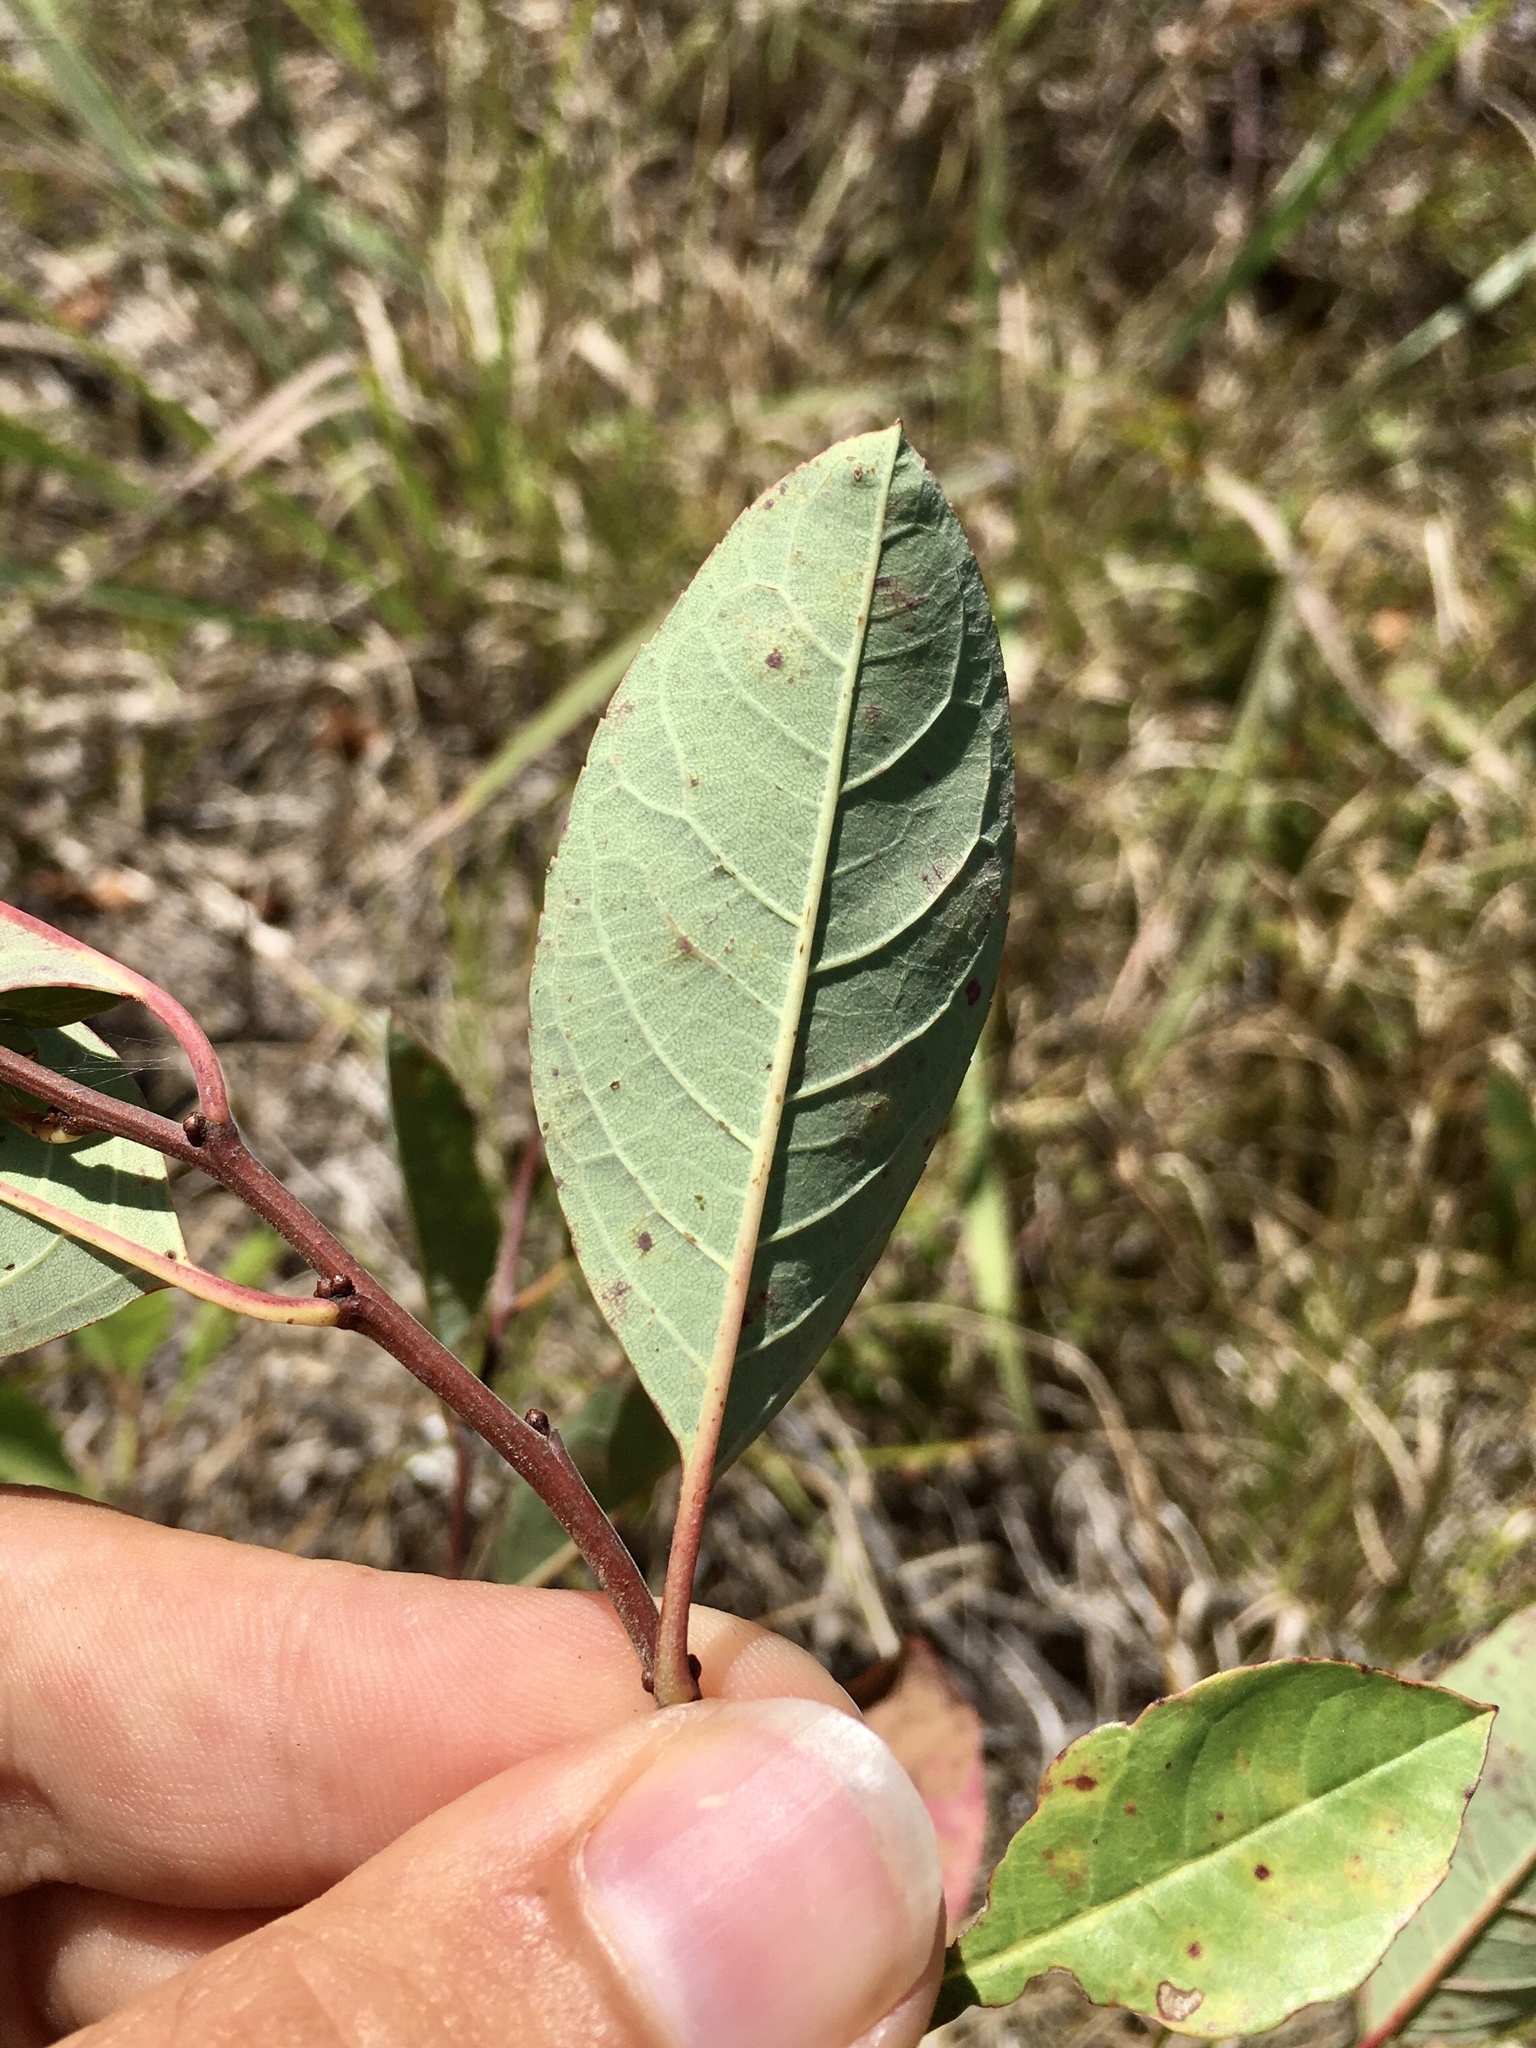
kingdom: Plantae
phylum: Tracheophyta
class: Magnoliopsida
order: Rosales
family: Rosaceae
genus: Prunus
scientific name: Prunus susquehanae
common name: Sesquehana sandcherry
